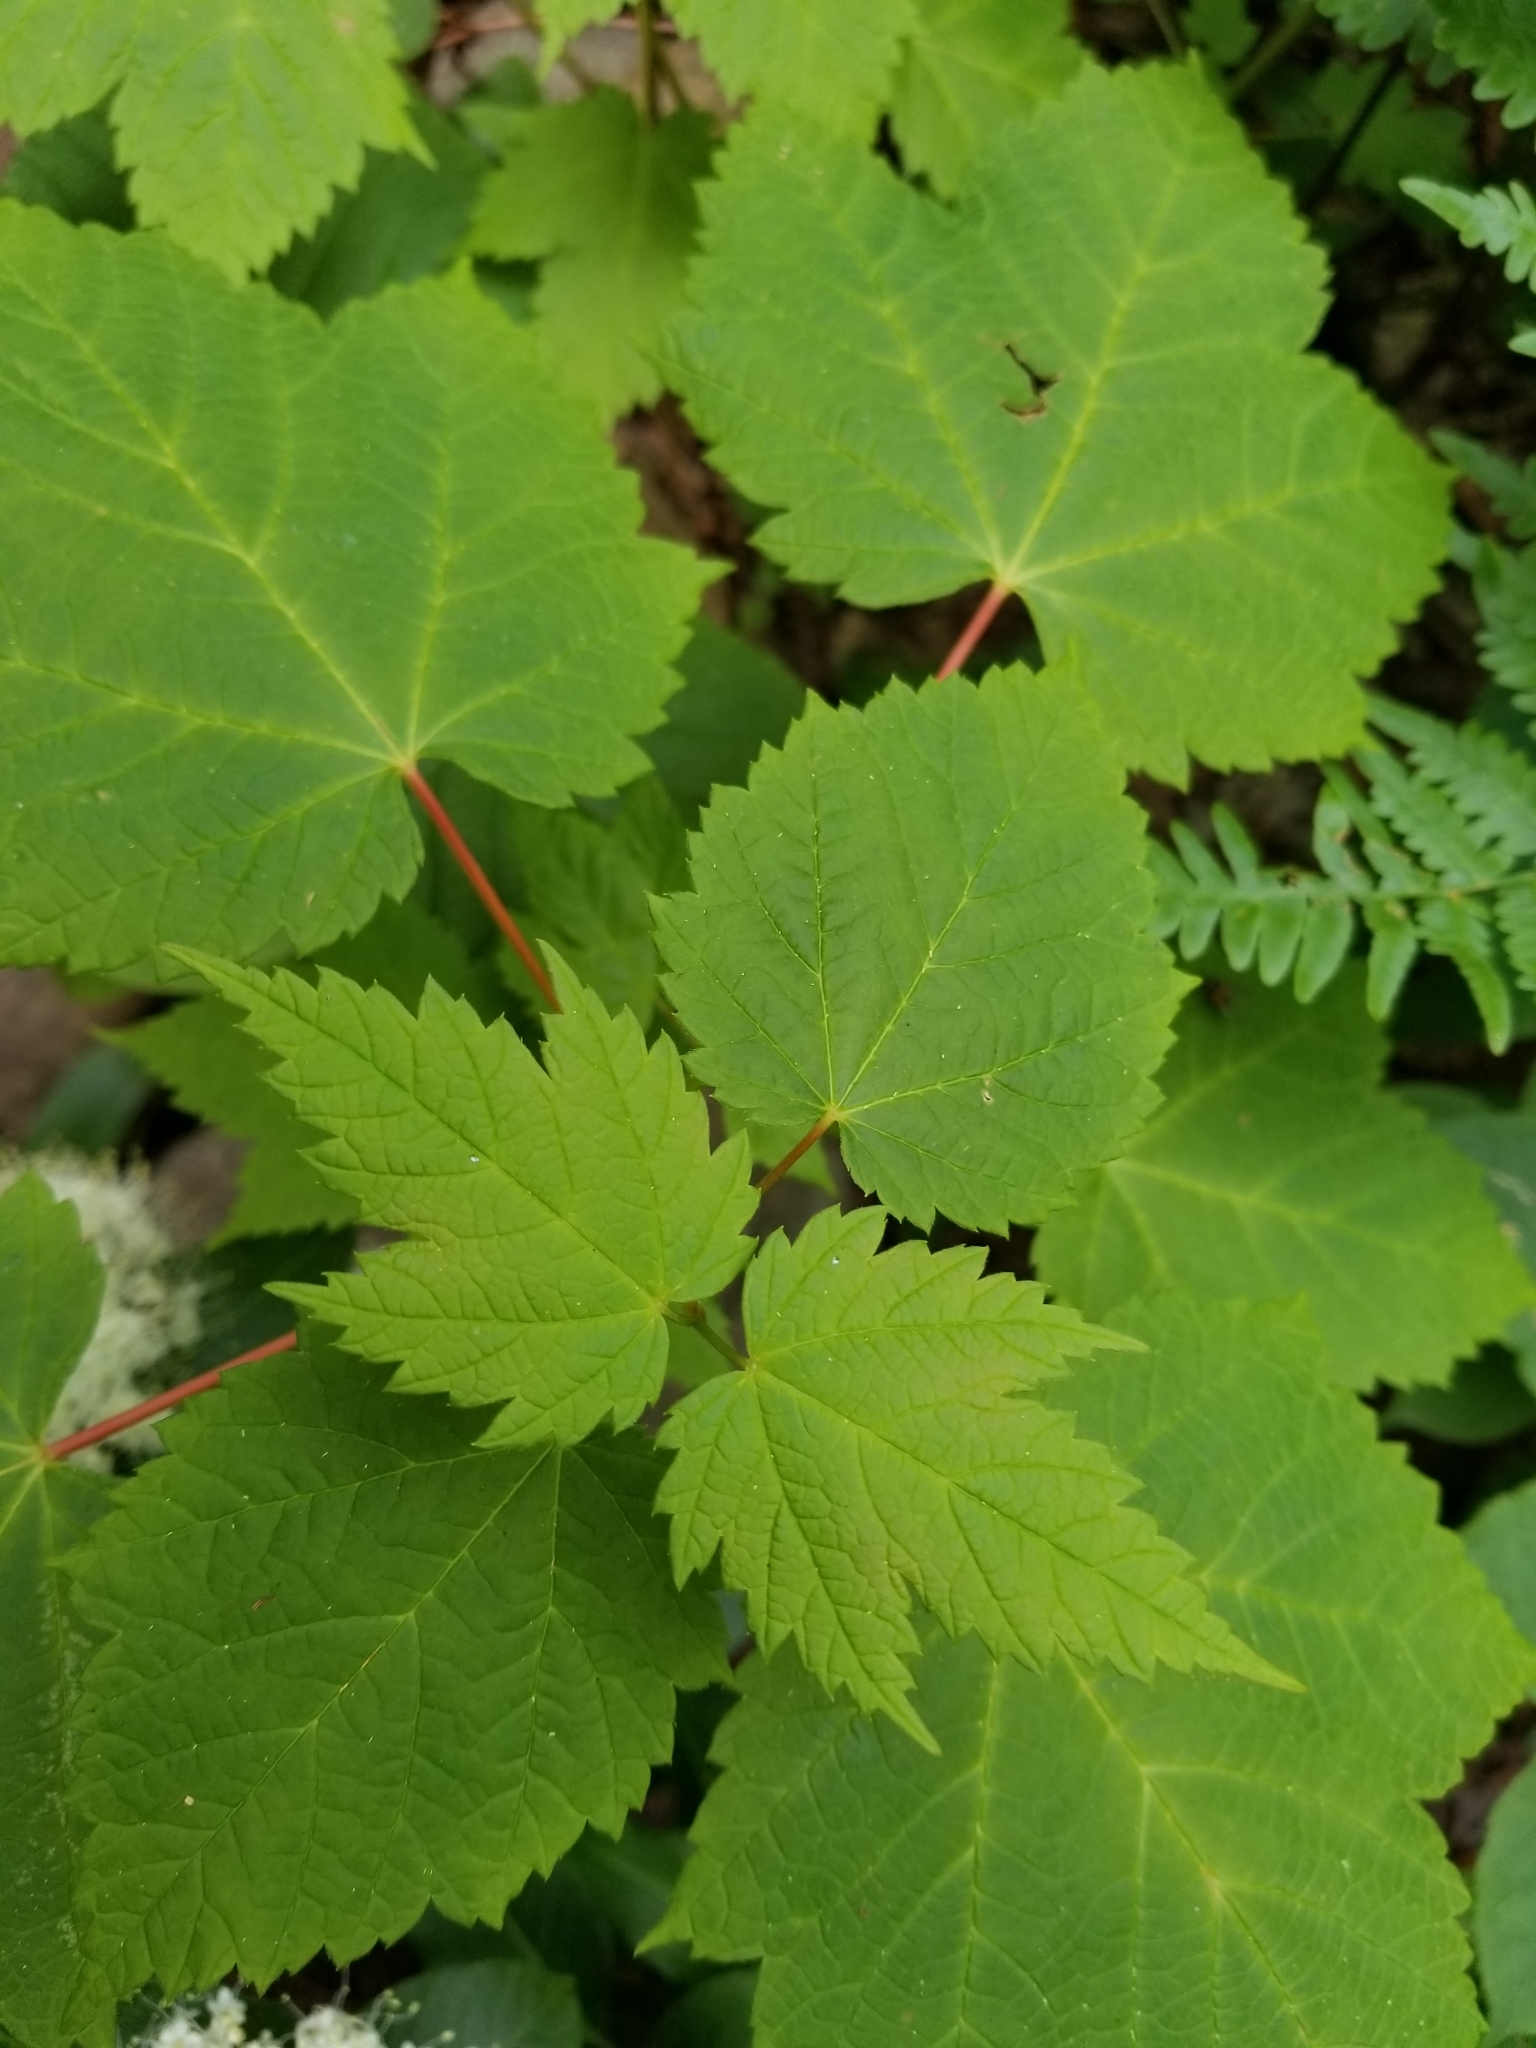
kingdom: Plantae
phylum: Tracheophyta
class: Magnoliopsida
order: Sapindales
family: Sapindaceae
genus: Acer
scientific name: Acer spicatum
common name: Mountain maple
